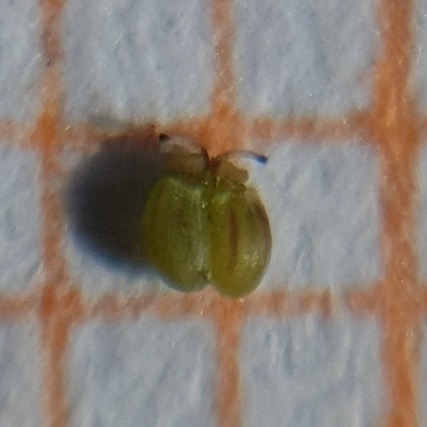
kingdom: Plantae
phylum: Tracheophyta
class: Magnoliopsida
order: Apiales
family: Apiaceae
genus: Ammoides
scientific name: Ammoides pusilla
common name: Cerfolium
